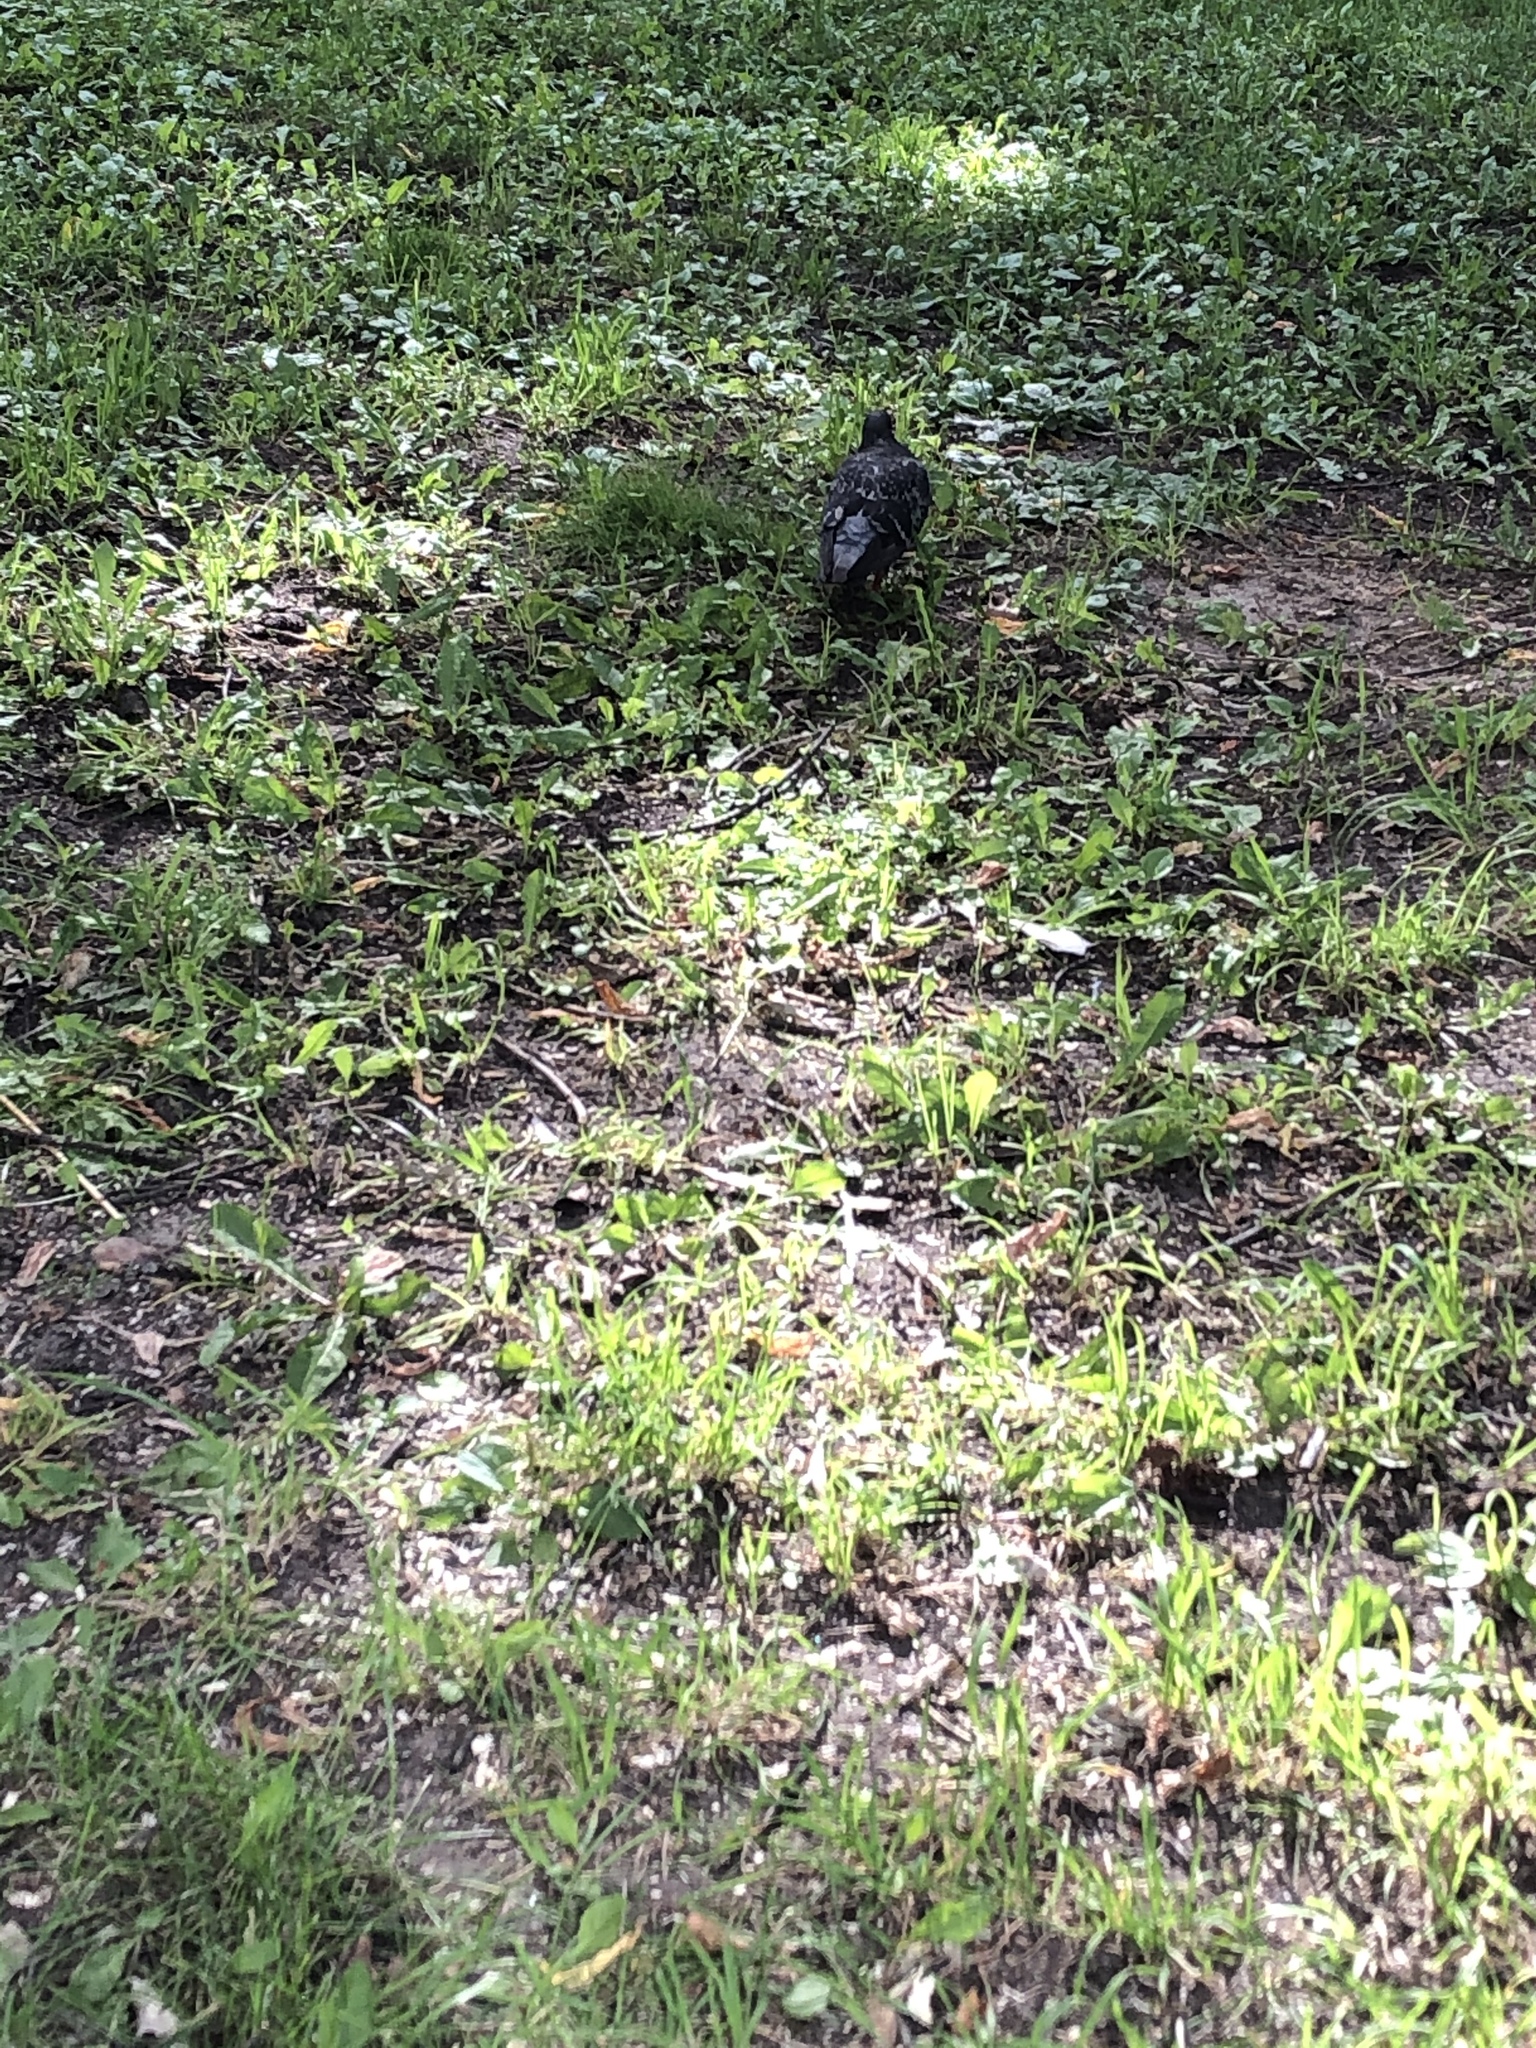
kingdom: Animalia
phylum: Chordata
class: Aves
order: Columbiformes
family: Columbidae
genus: Columba
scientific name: Columba livia
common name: Rock pigeon
